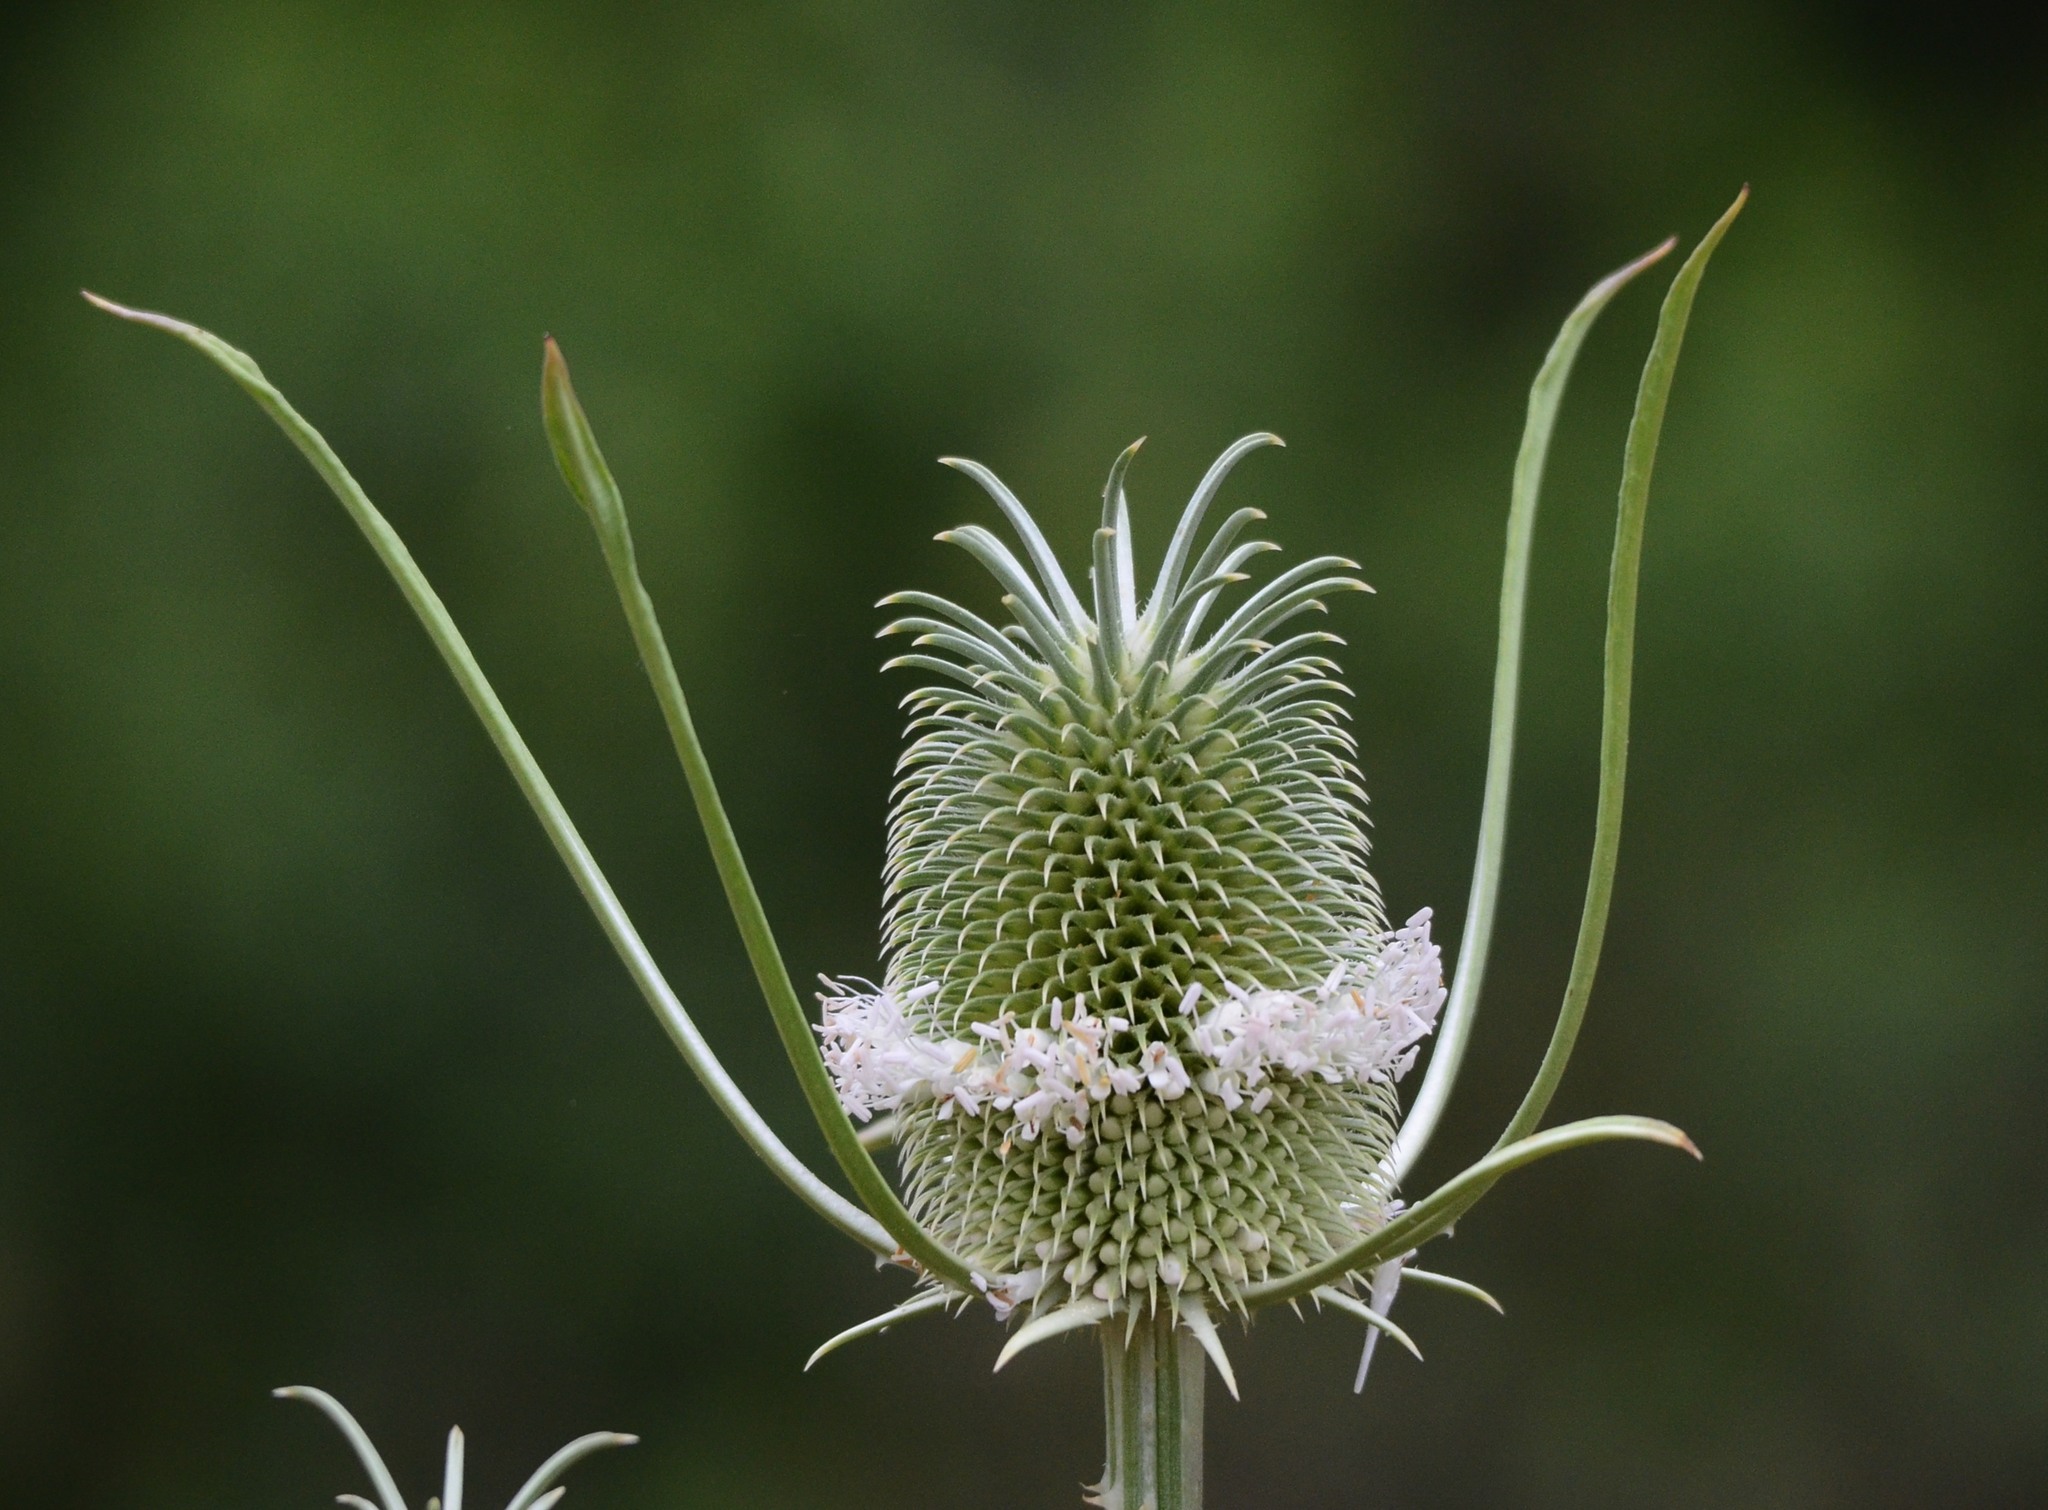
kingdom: Plantae
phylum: Tracheophyta
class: Magnoliopsida
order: Dipsacales
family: Caprifoliaceae
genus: Dipsacus
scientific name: Dipsacus sativus
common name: Fuller's teasel
